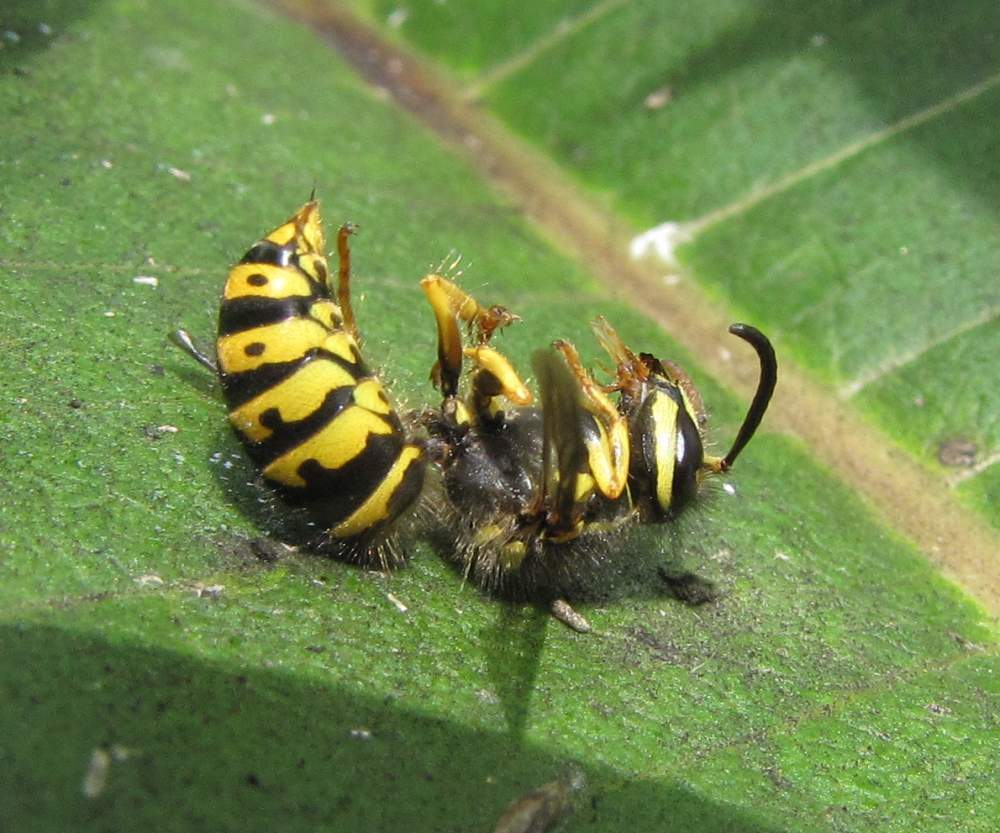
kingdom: Animalia
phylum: Arthropoda
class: Insecta
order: Hymenoptera
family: Vespidae
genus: Dolichovespula
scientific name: Dolichovespula arenaria
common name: Aerial yellowjacket
